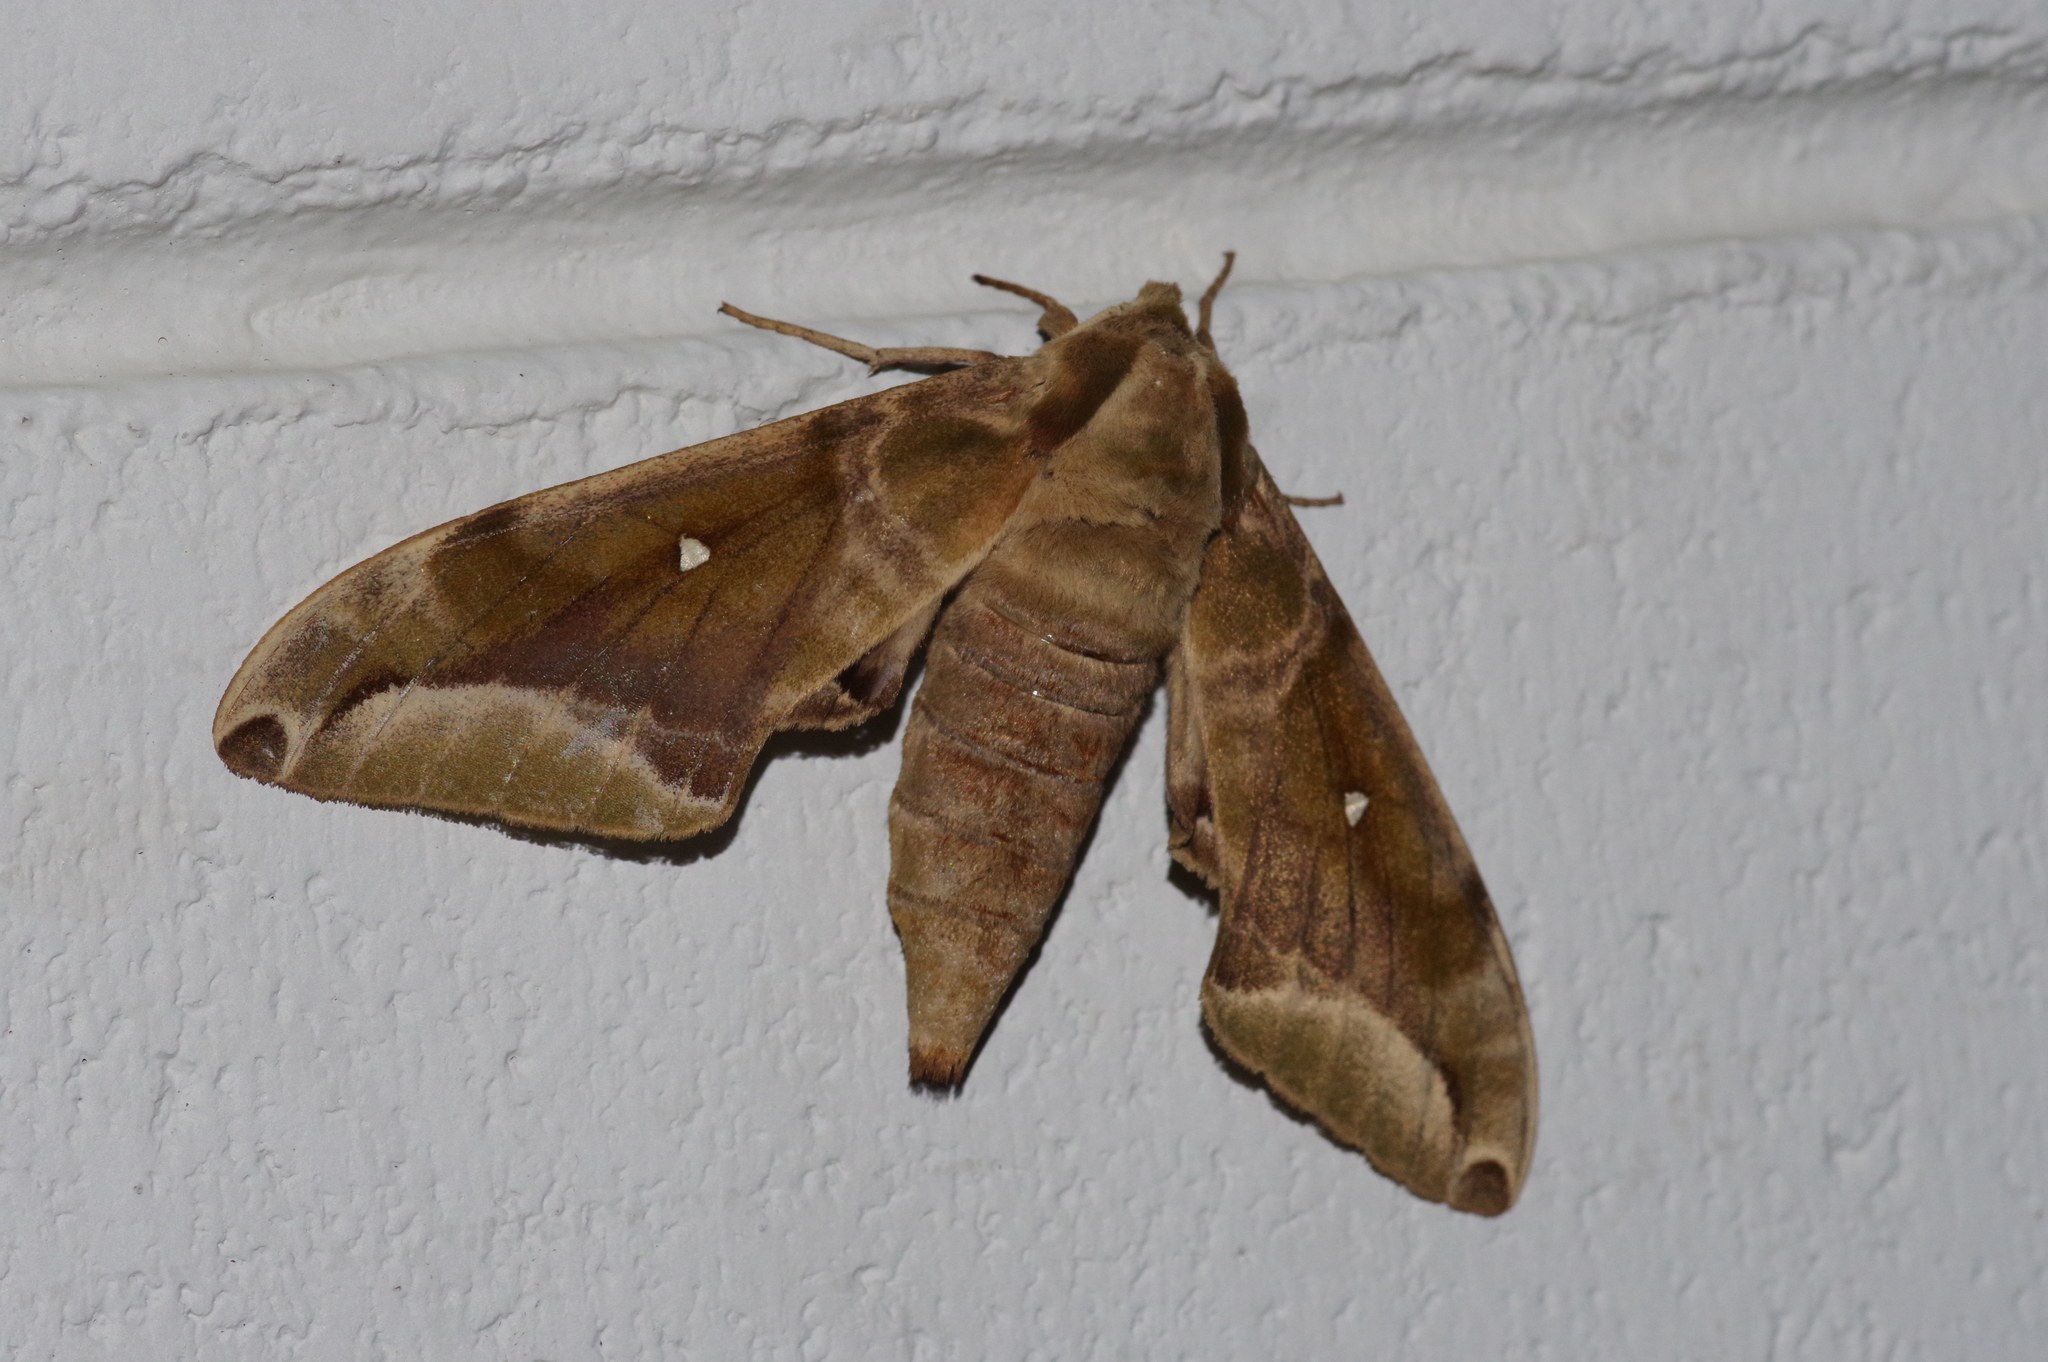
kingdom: Animalia
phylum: Arthropoda
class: Insecta
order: Lepidoptera
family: Sphingidae
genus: Parum
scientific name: Parum colligata
